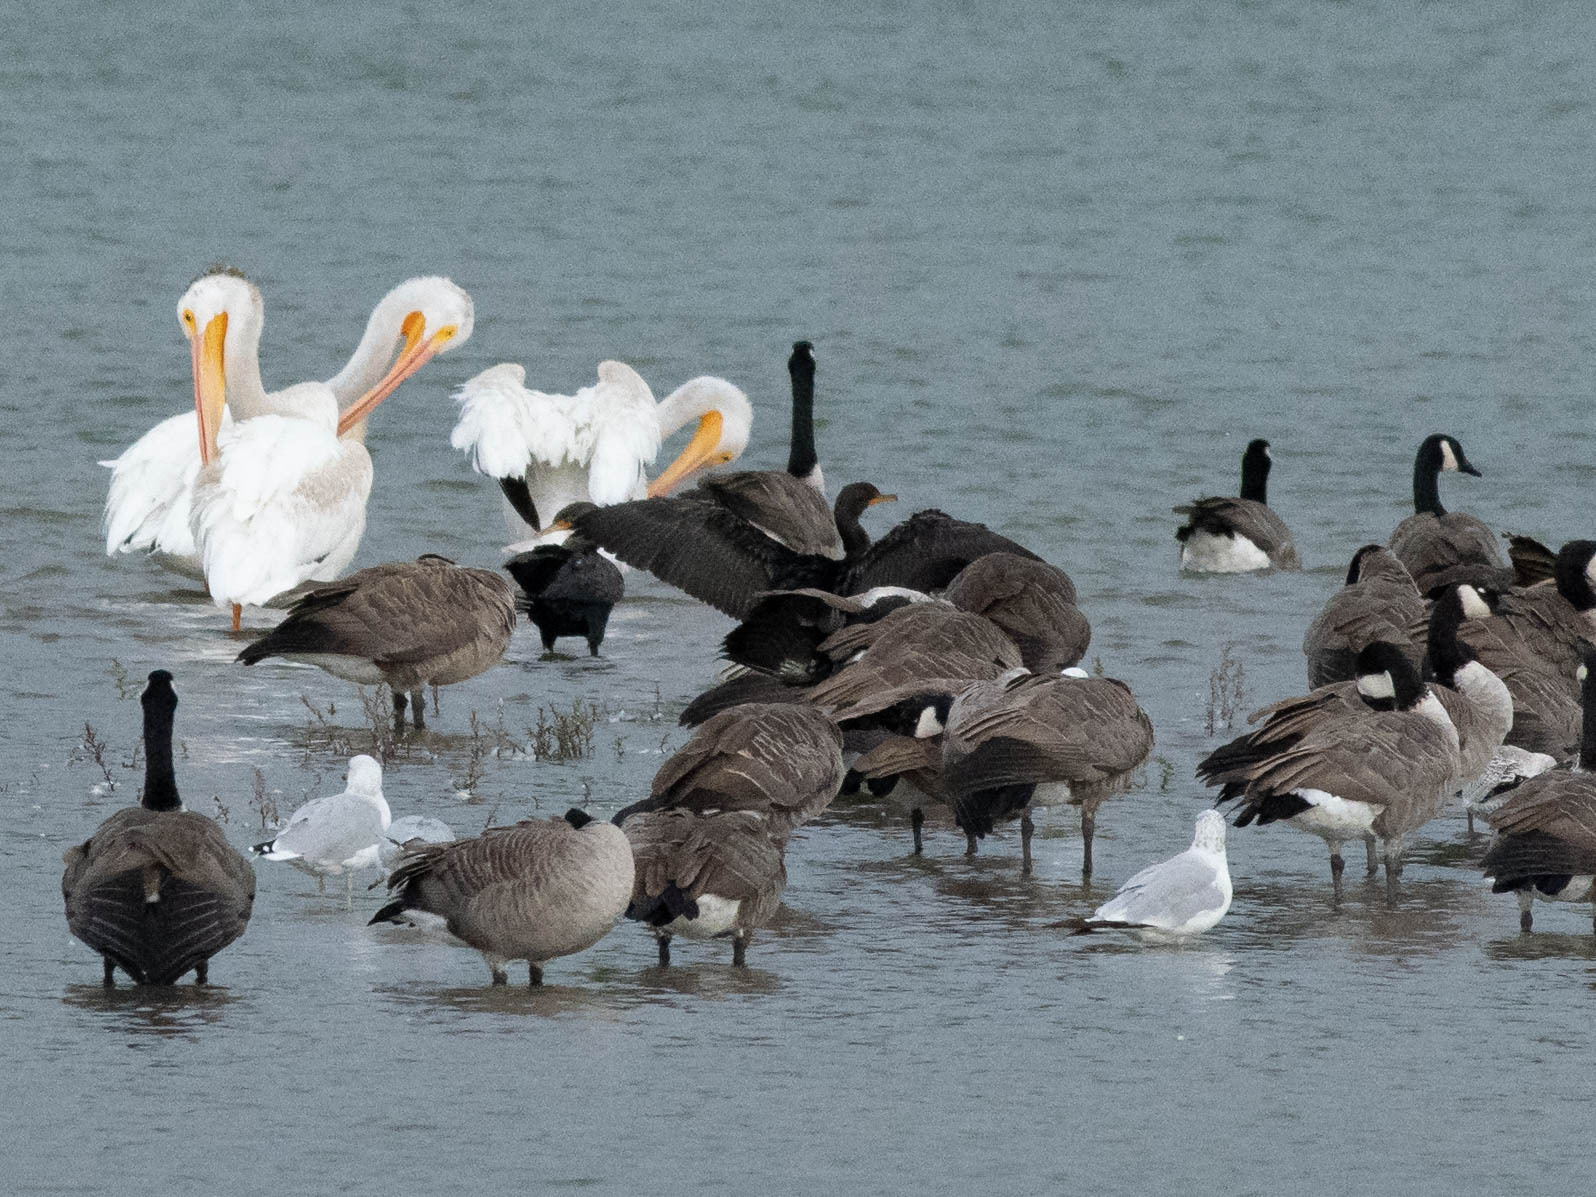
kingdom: Animalia
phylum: Chordata
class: Aves
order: Anseriformes
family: Anatidae
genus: Branta
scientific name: Branta canadensis
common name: Canada goose
